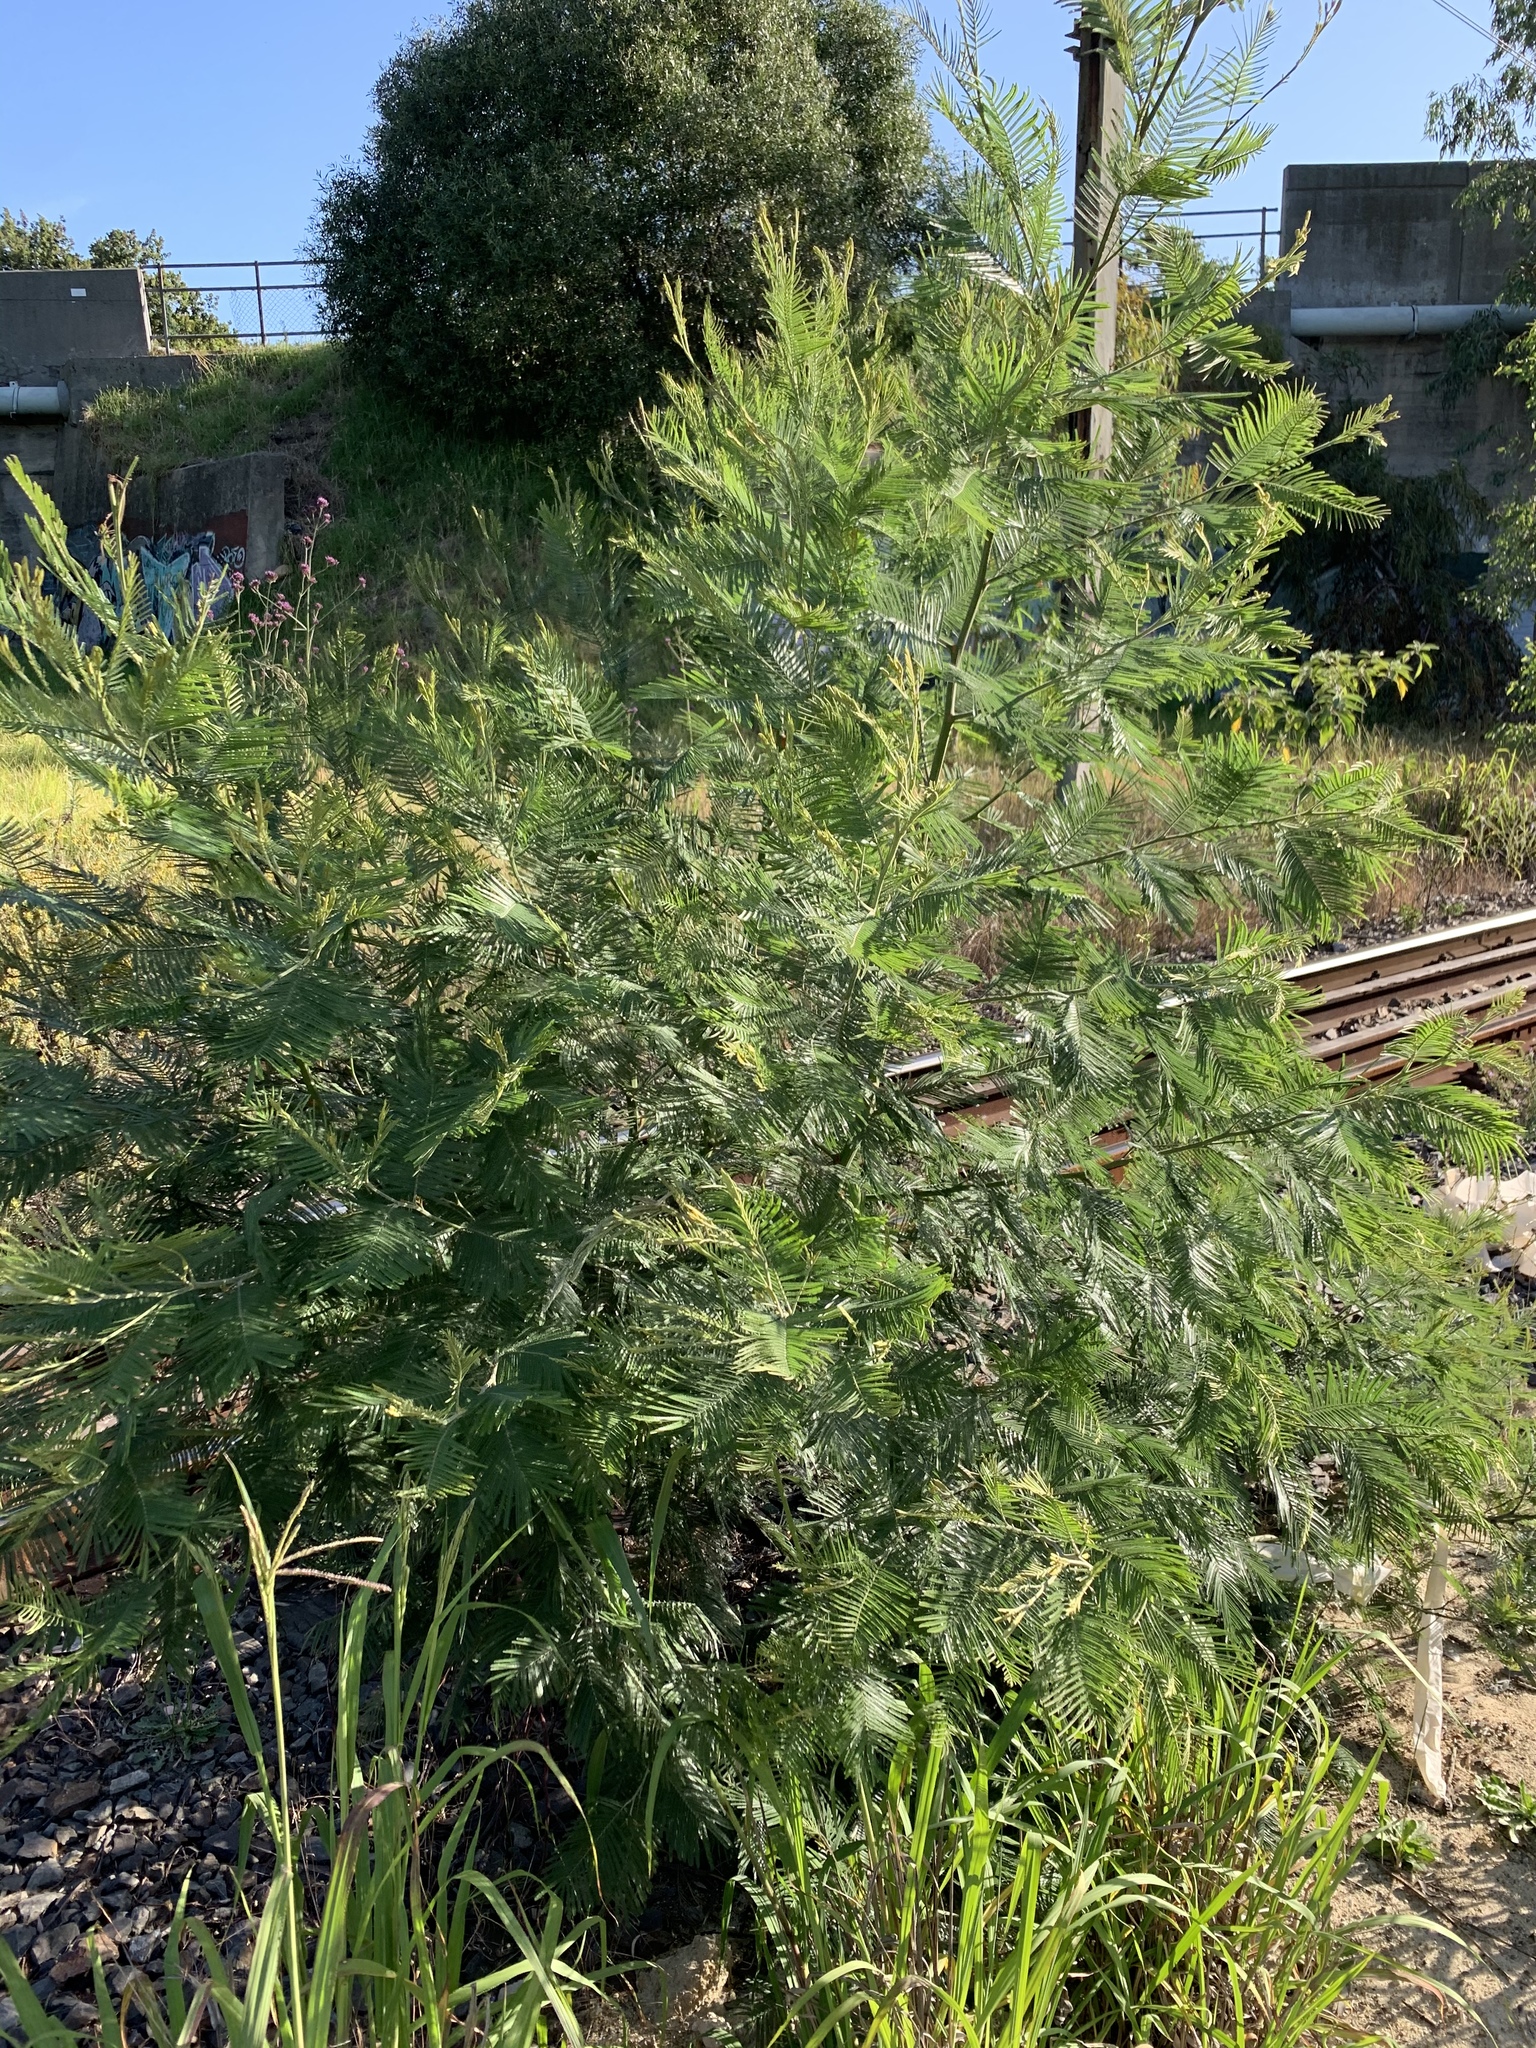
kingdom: Plantae
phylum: Tracheophyta
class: Magnoliopsida
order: Fabales
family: Fabaceae
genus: Acacia
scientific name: Acacia mearnsii
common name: Black wattle
